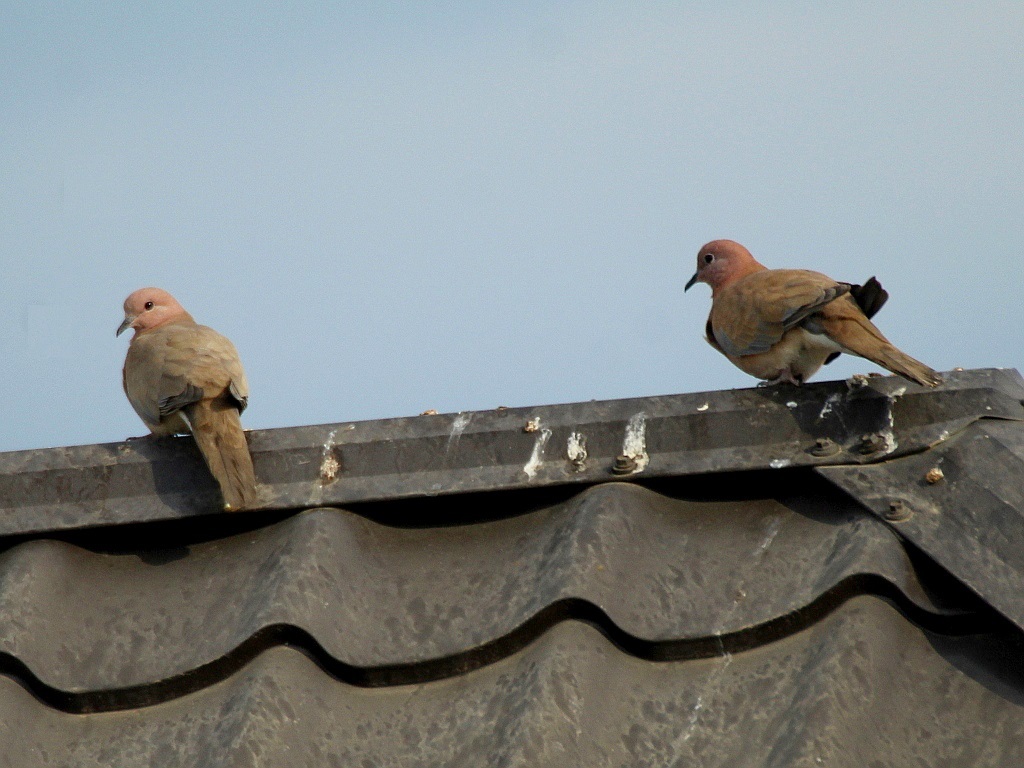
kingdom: Animalia
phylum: Chordata
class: Aves
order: Columbiformes
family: Columbidae
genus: Spilopelia
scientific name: Spilopelia senegalensis
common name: Laughing dove
